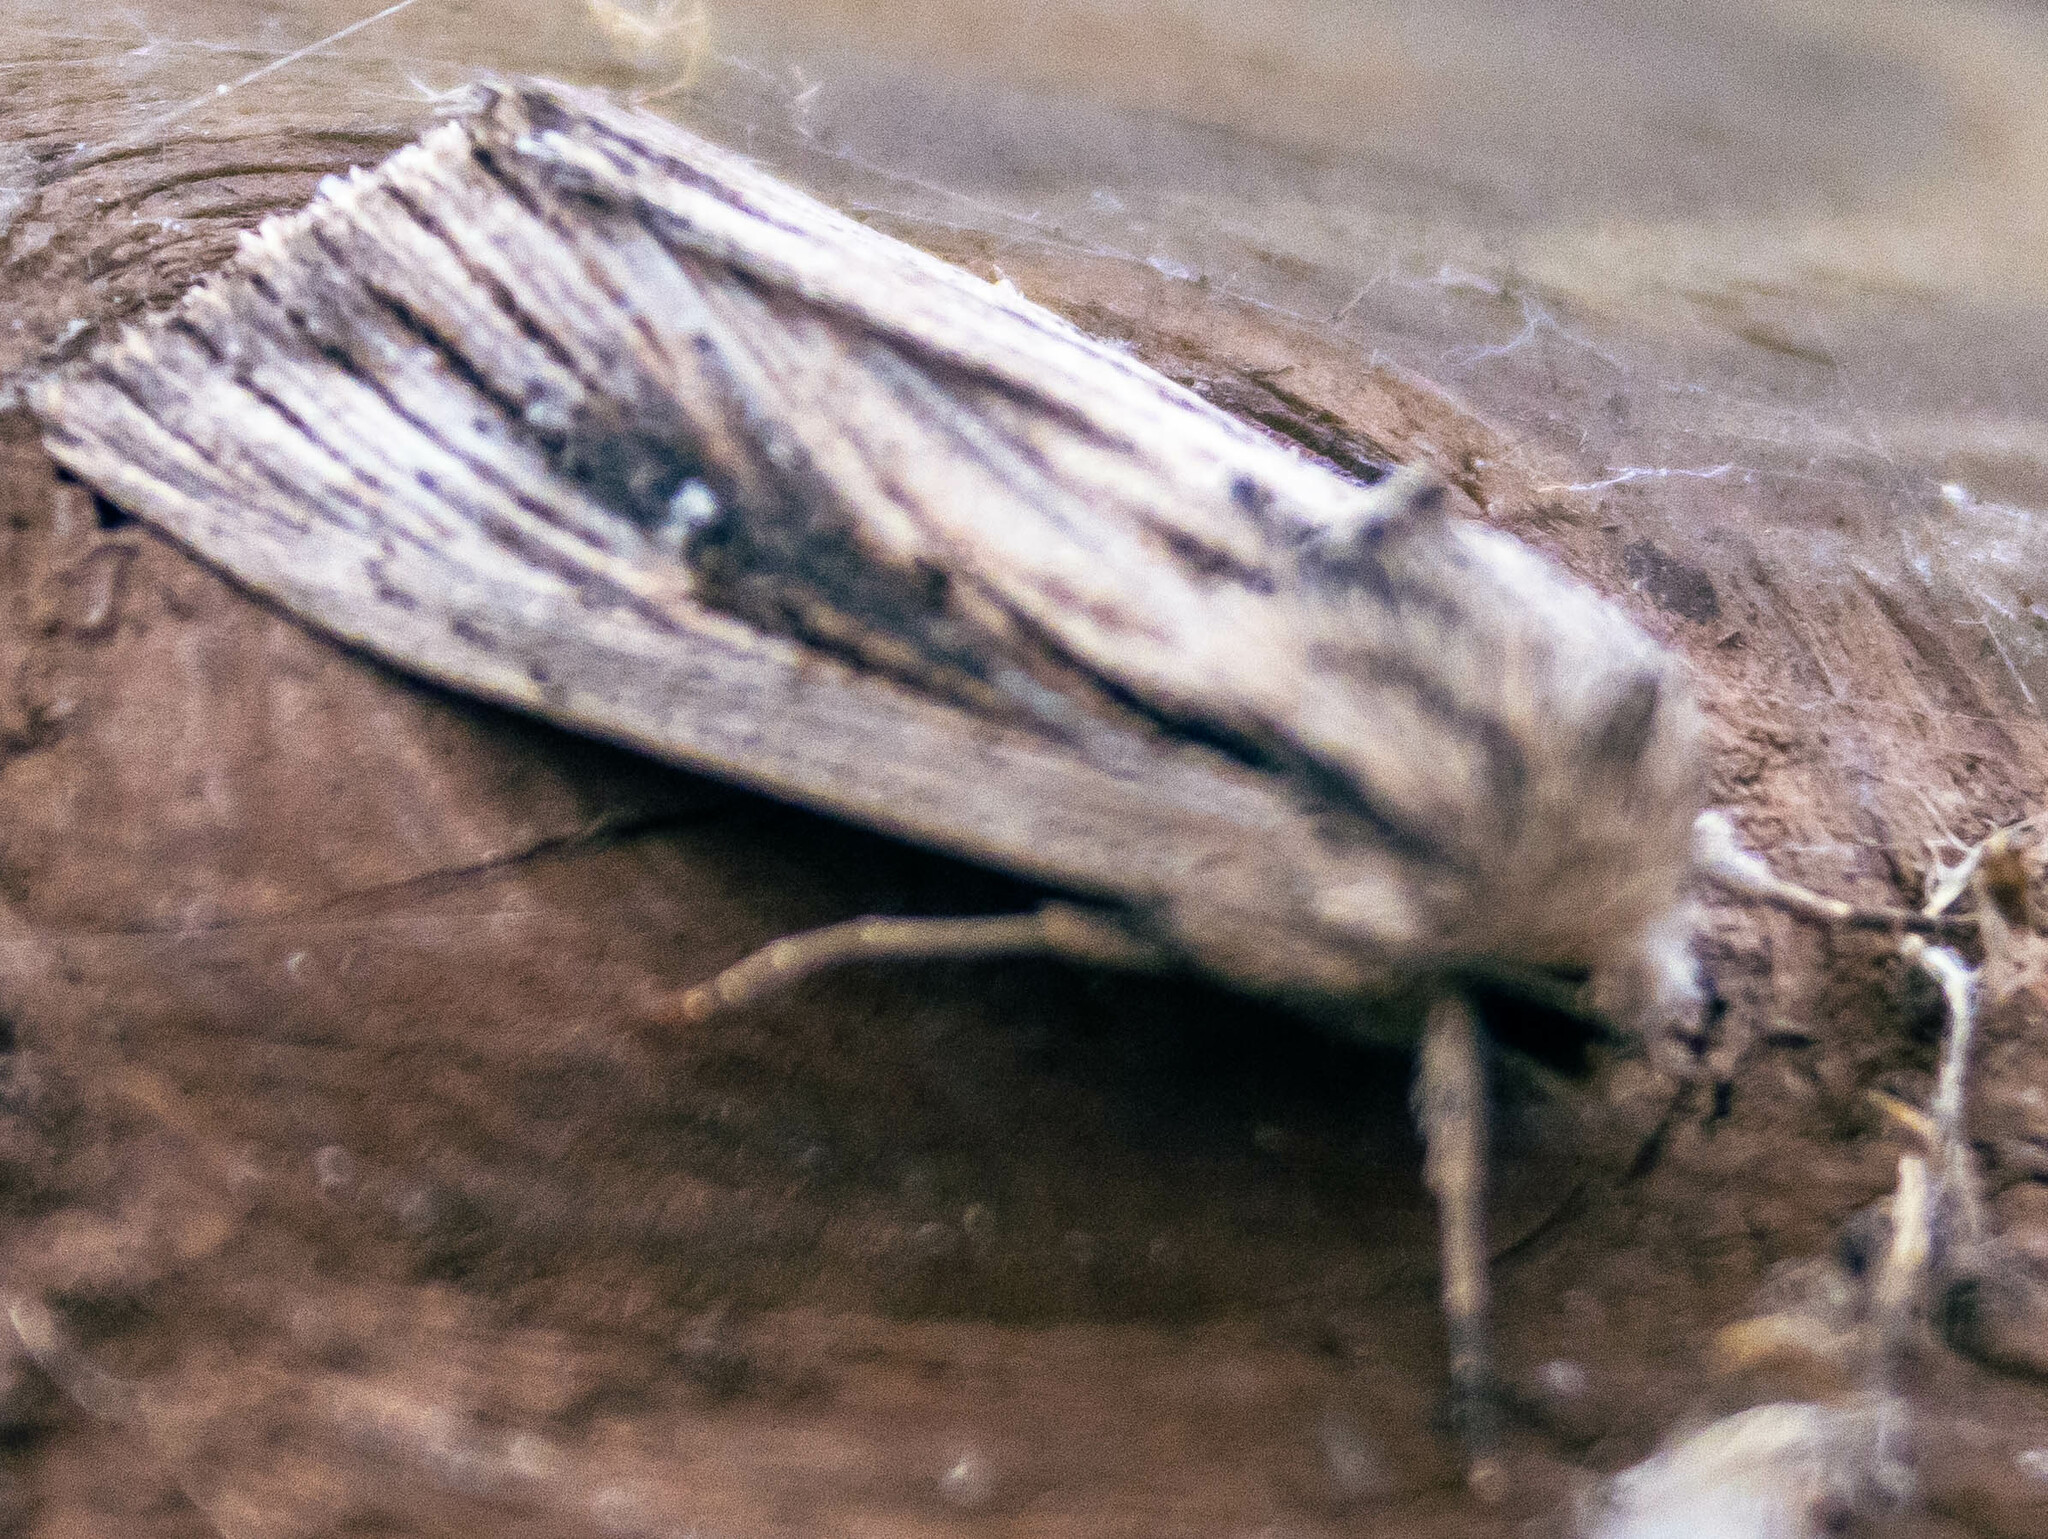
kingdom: Animalia
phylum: Arthropoda
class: Insecta
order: Lepidoptera
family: Noctuidae
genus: Leucania
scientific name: Leucania putrescens
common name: Devonshire wainscot
